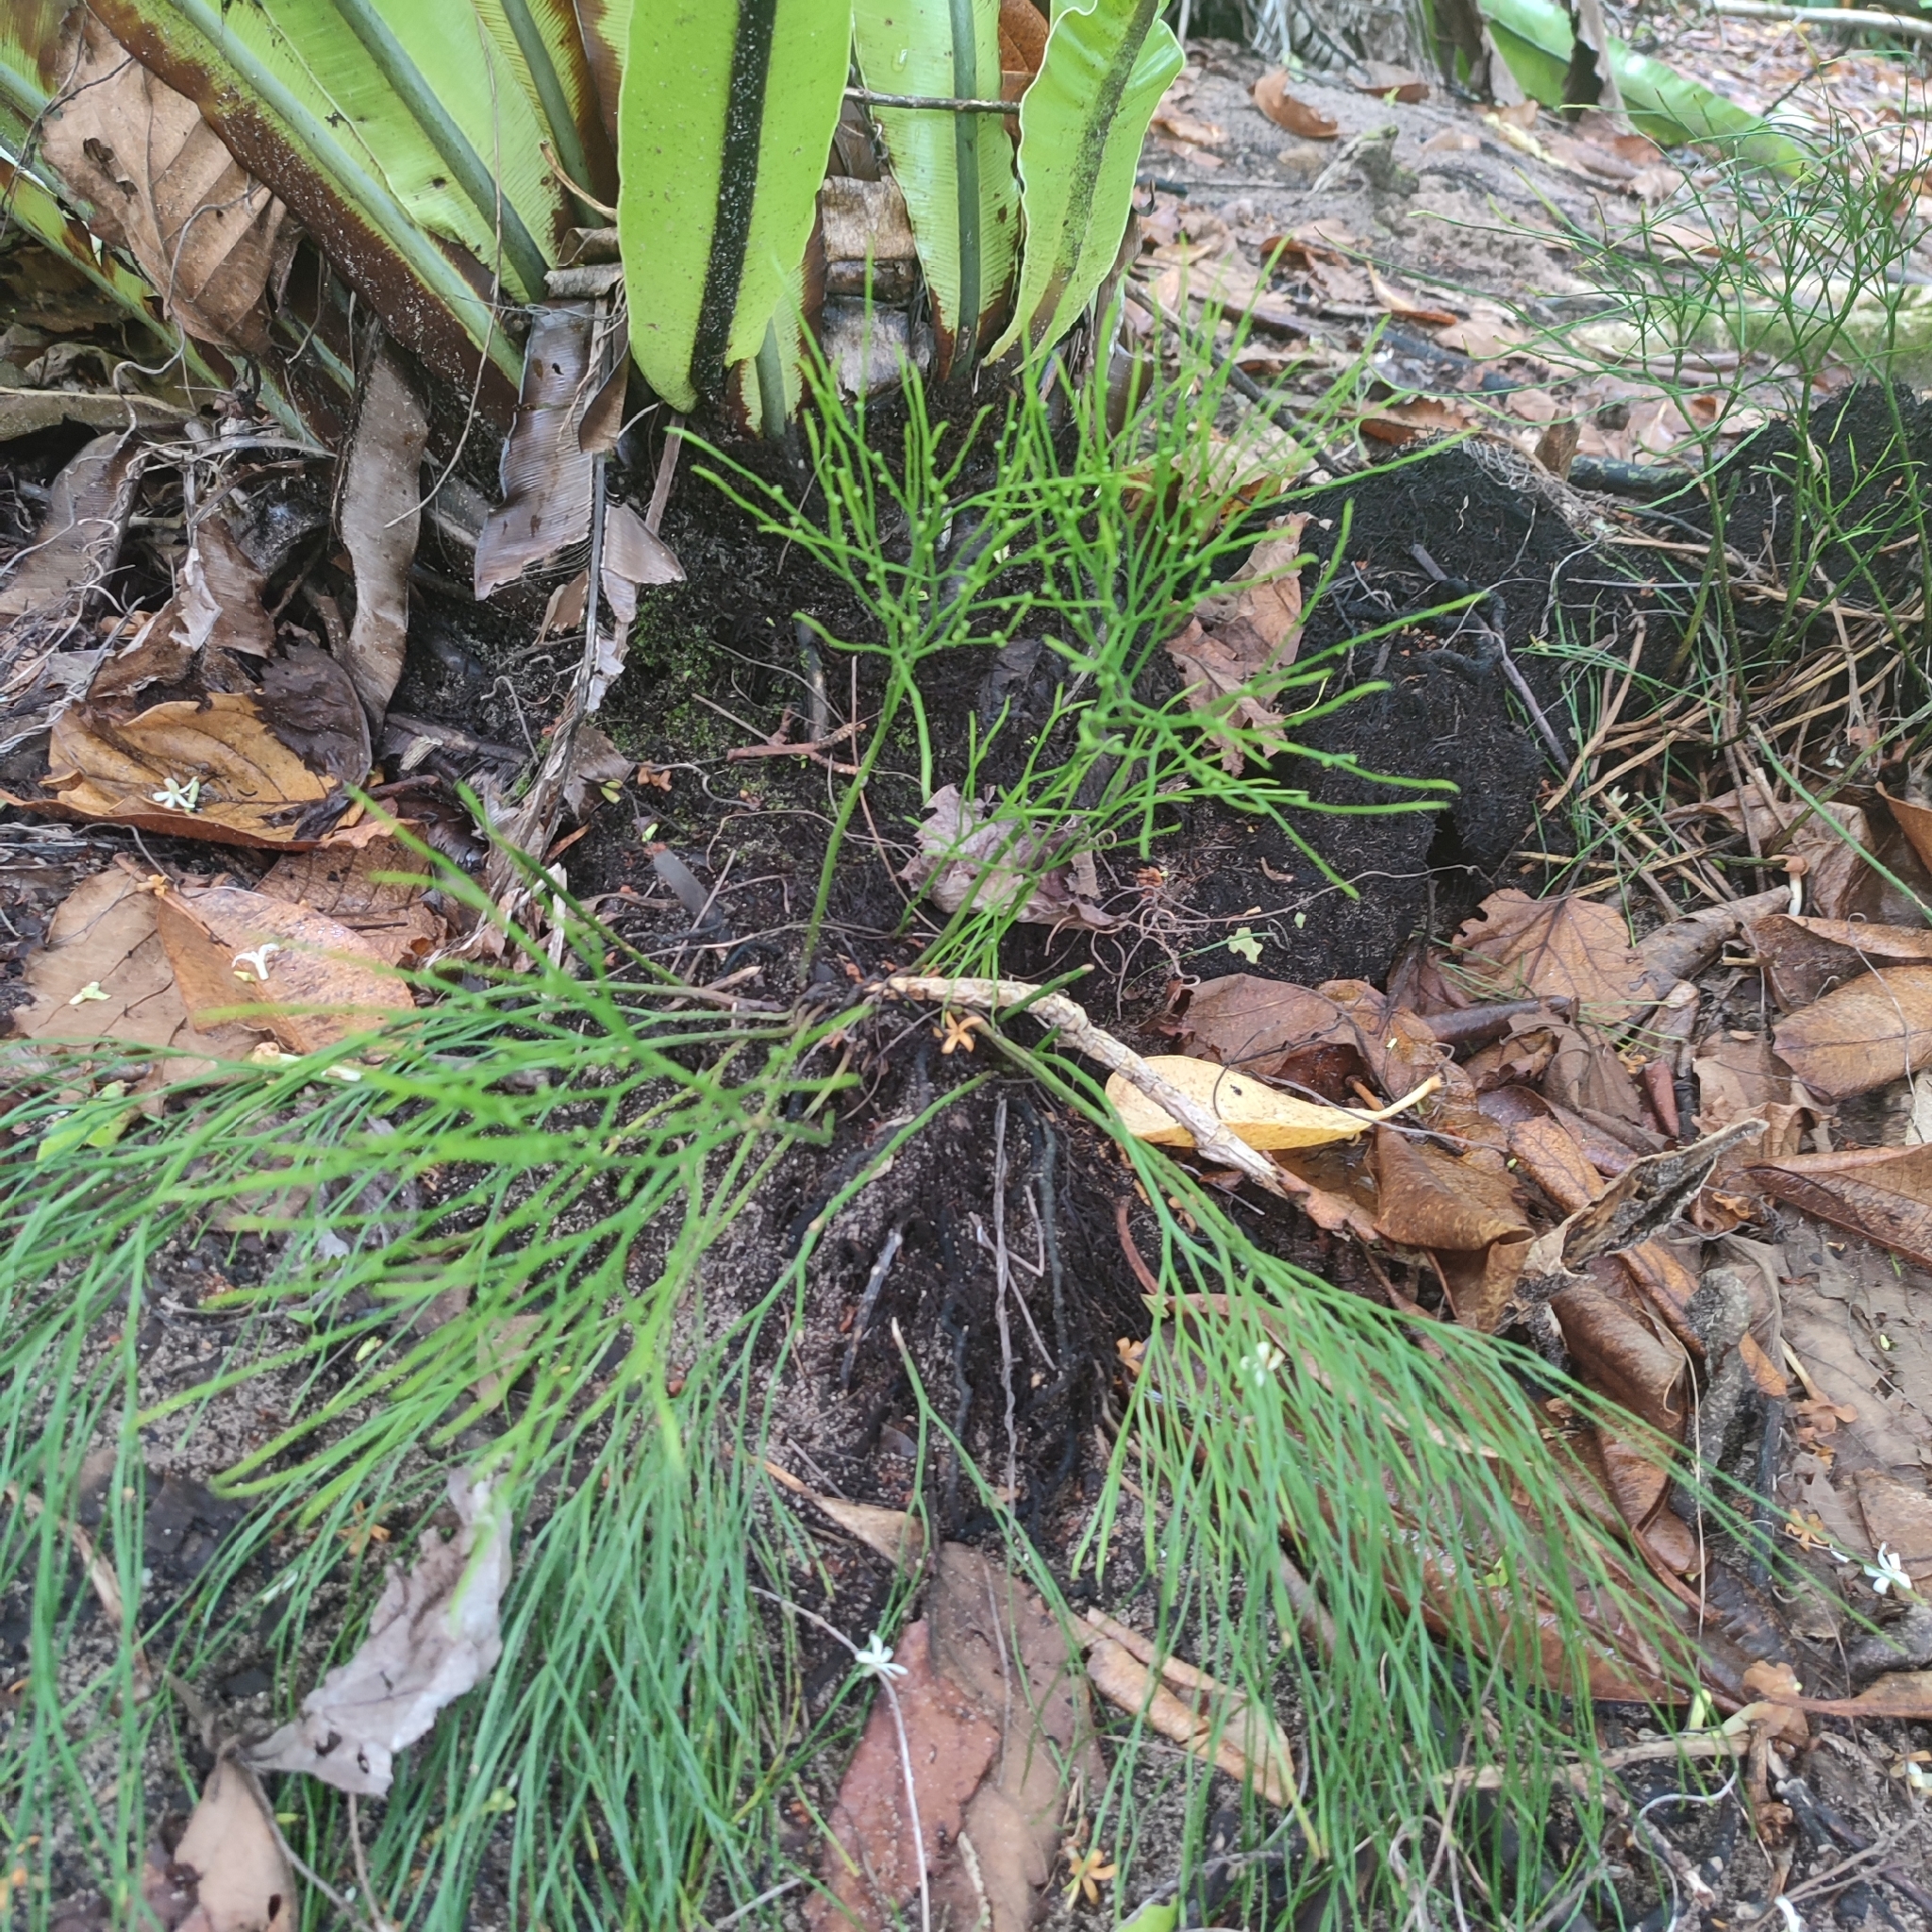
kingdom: Plantae
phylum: Tracheophyta
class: Polypodiopsida
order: Psilotales
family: Psilotaceae
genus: Psilotum
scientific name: Psilotum nudum
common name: Skeleton fork fern
